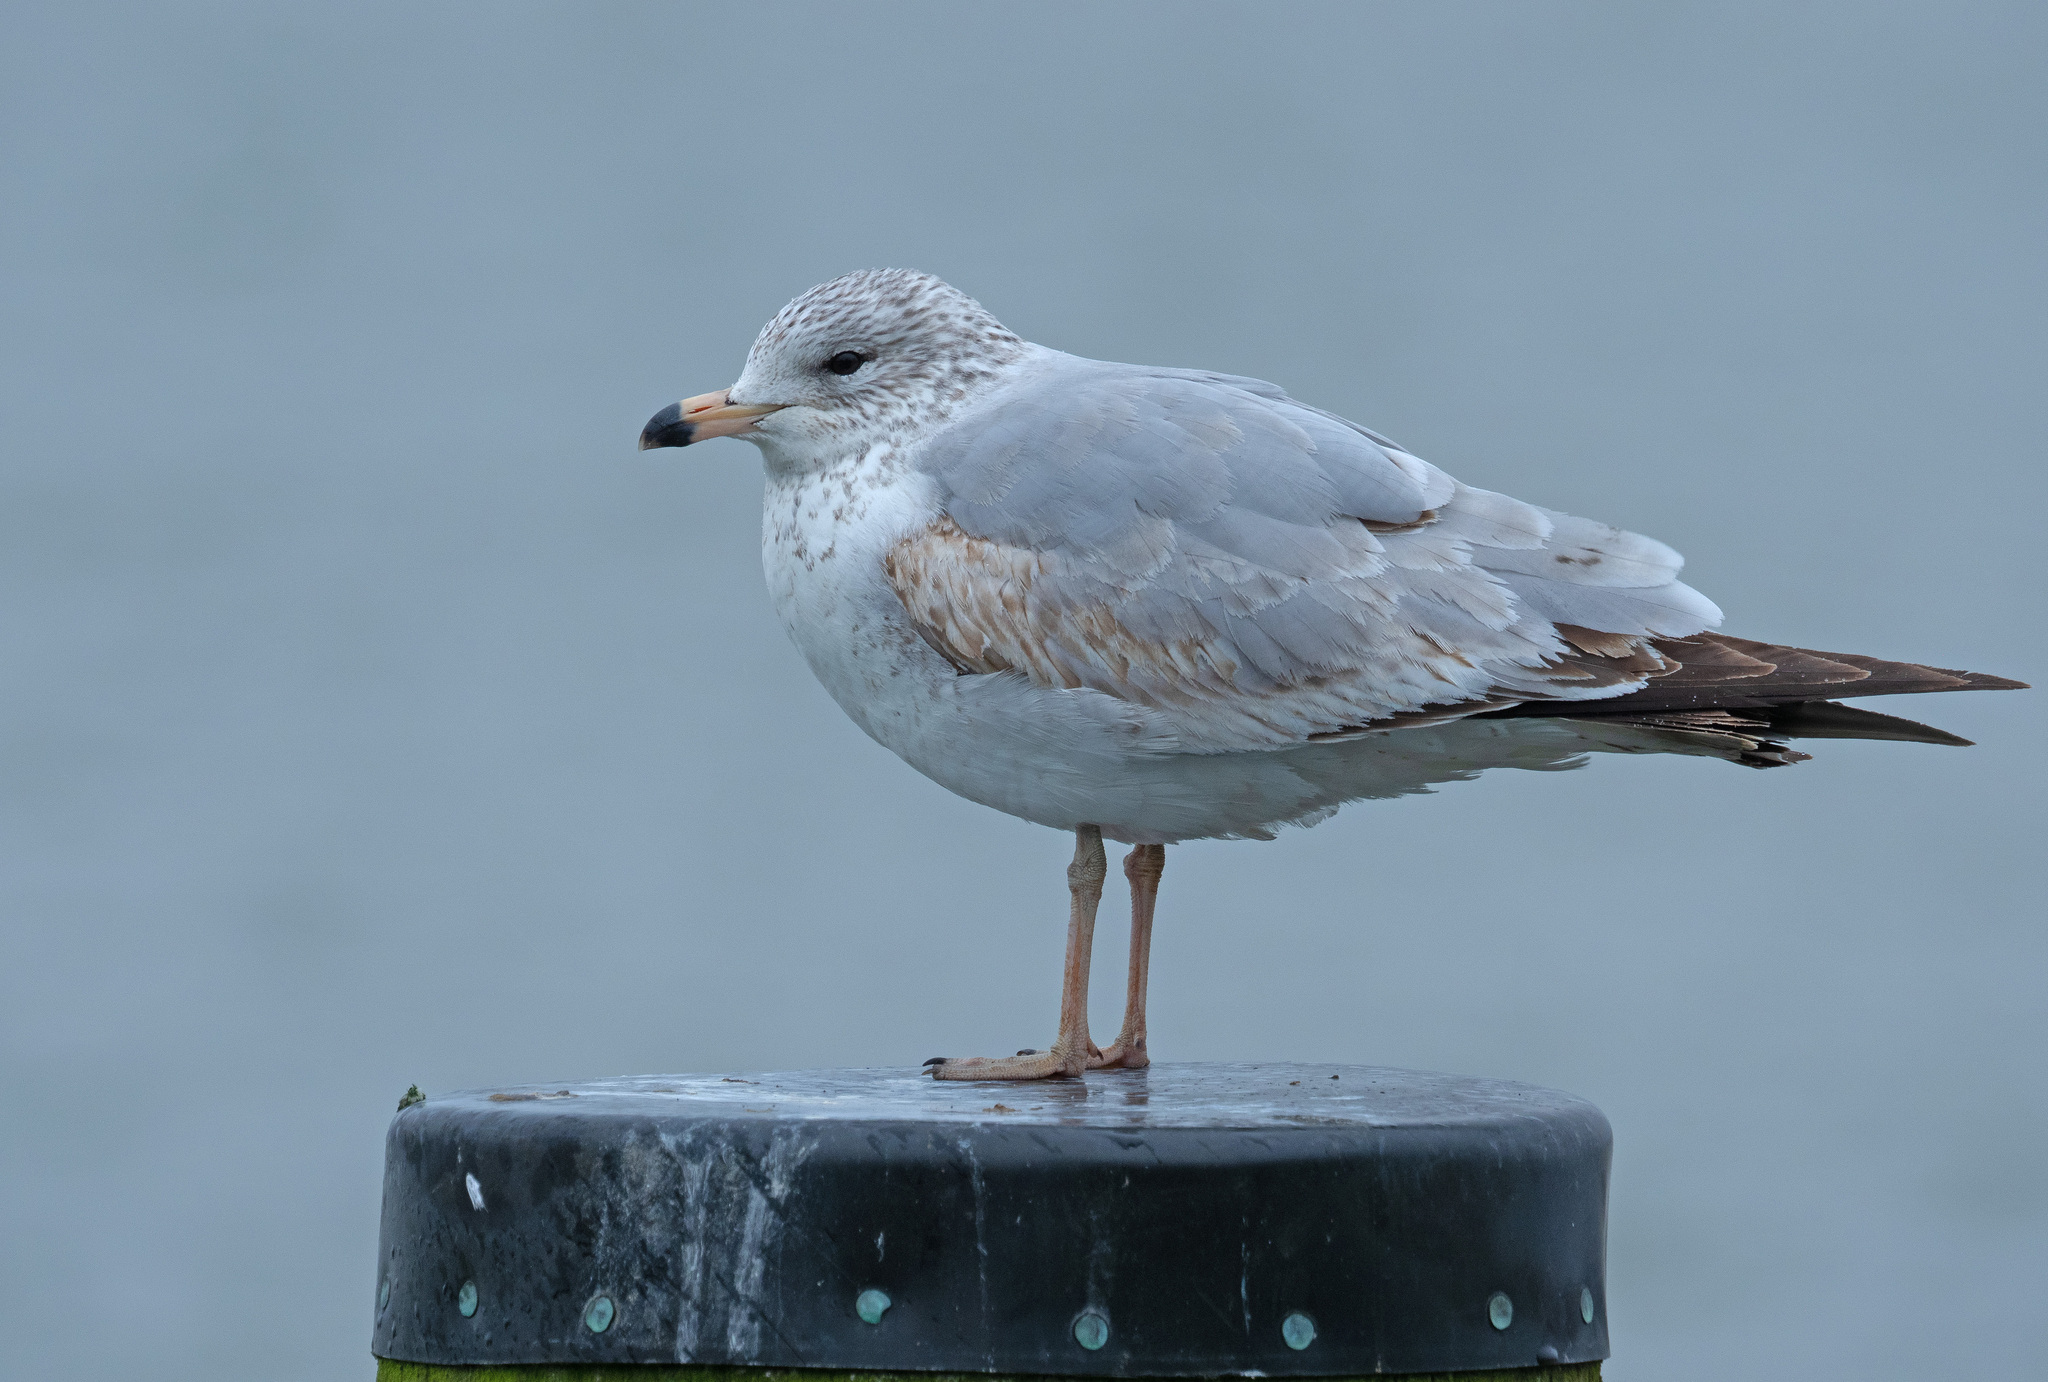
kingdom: Animalia
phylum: Chordata
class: Aves
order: Charadriiformes
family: Laridae
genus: Larus
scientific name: Larus delawarensis
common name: Ring-billed gull
